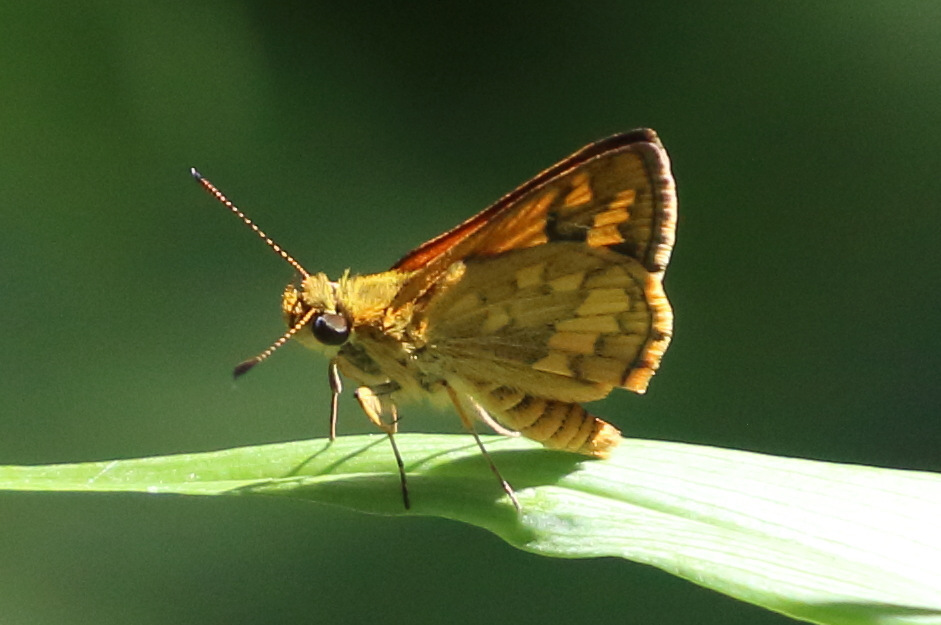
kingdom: Animalia
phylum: Arthropoda
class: Insecta
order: Lepidoptera
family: Hesperiidae
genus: Suniana
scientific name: Suniana sunias
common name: Wide-brand grass-dart
